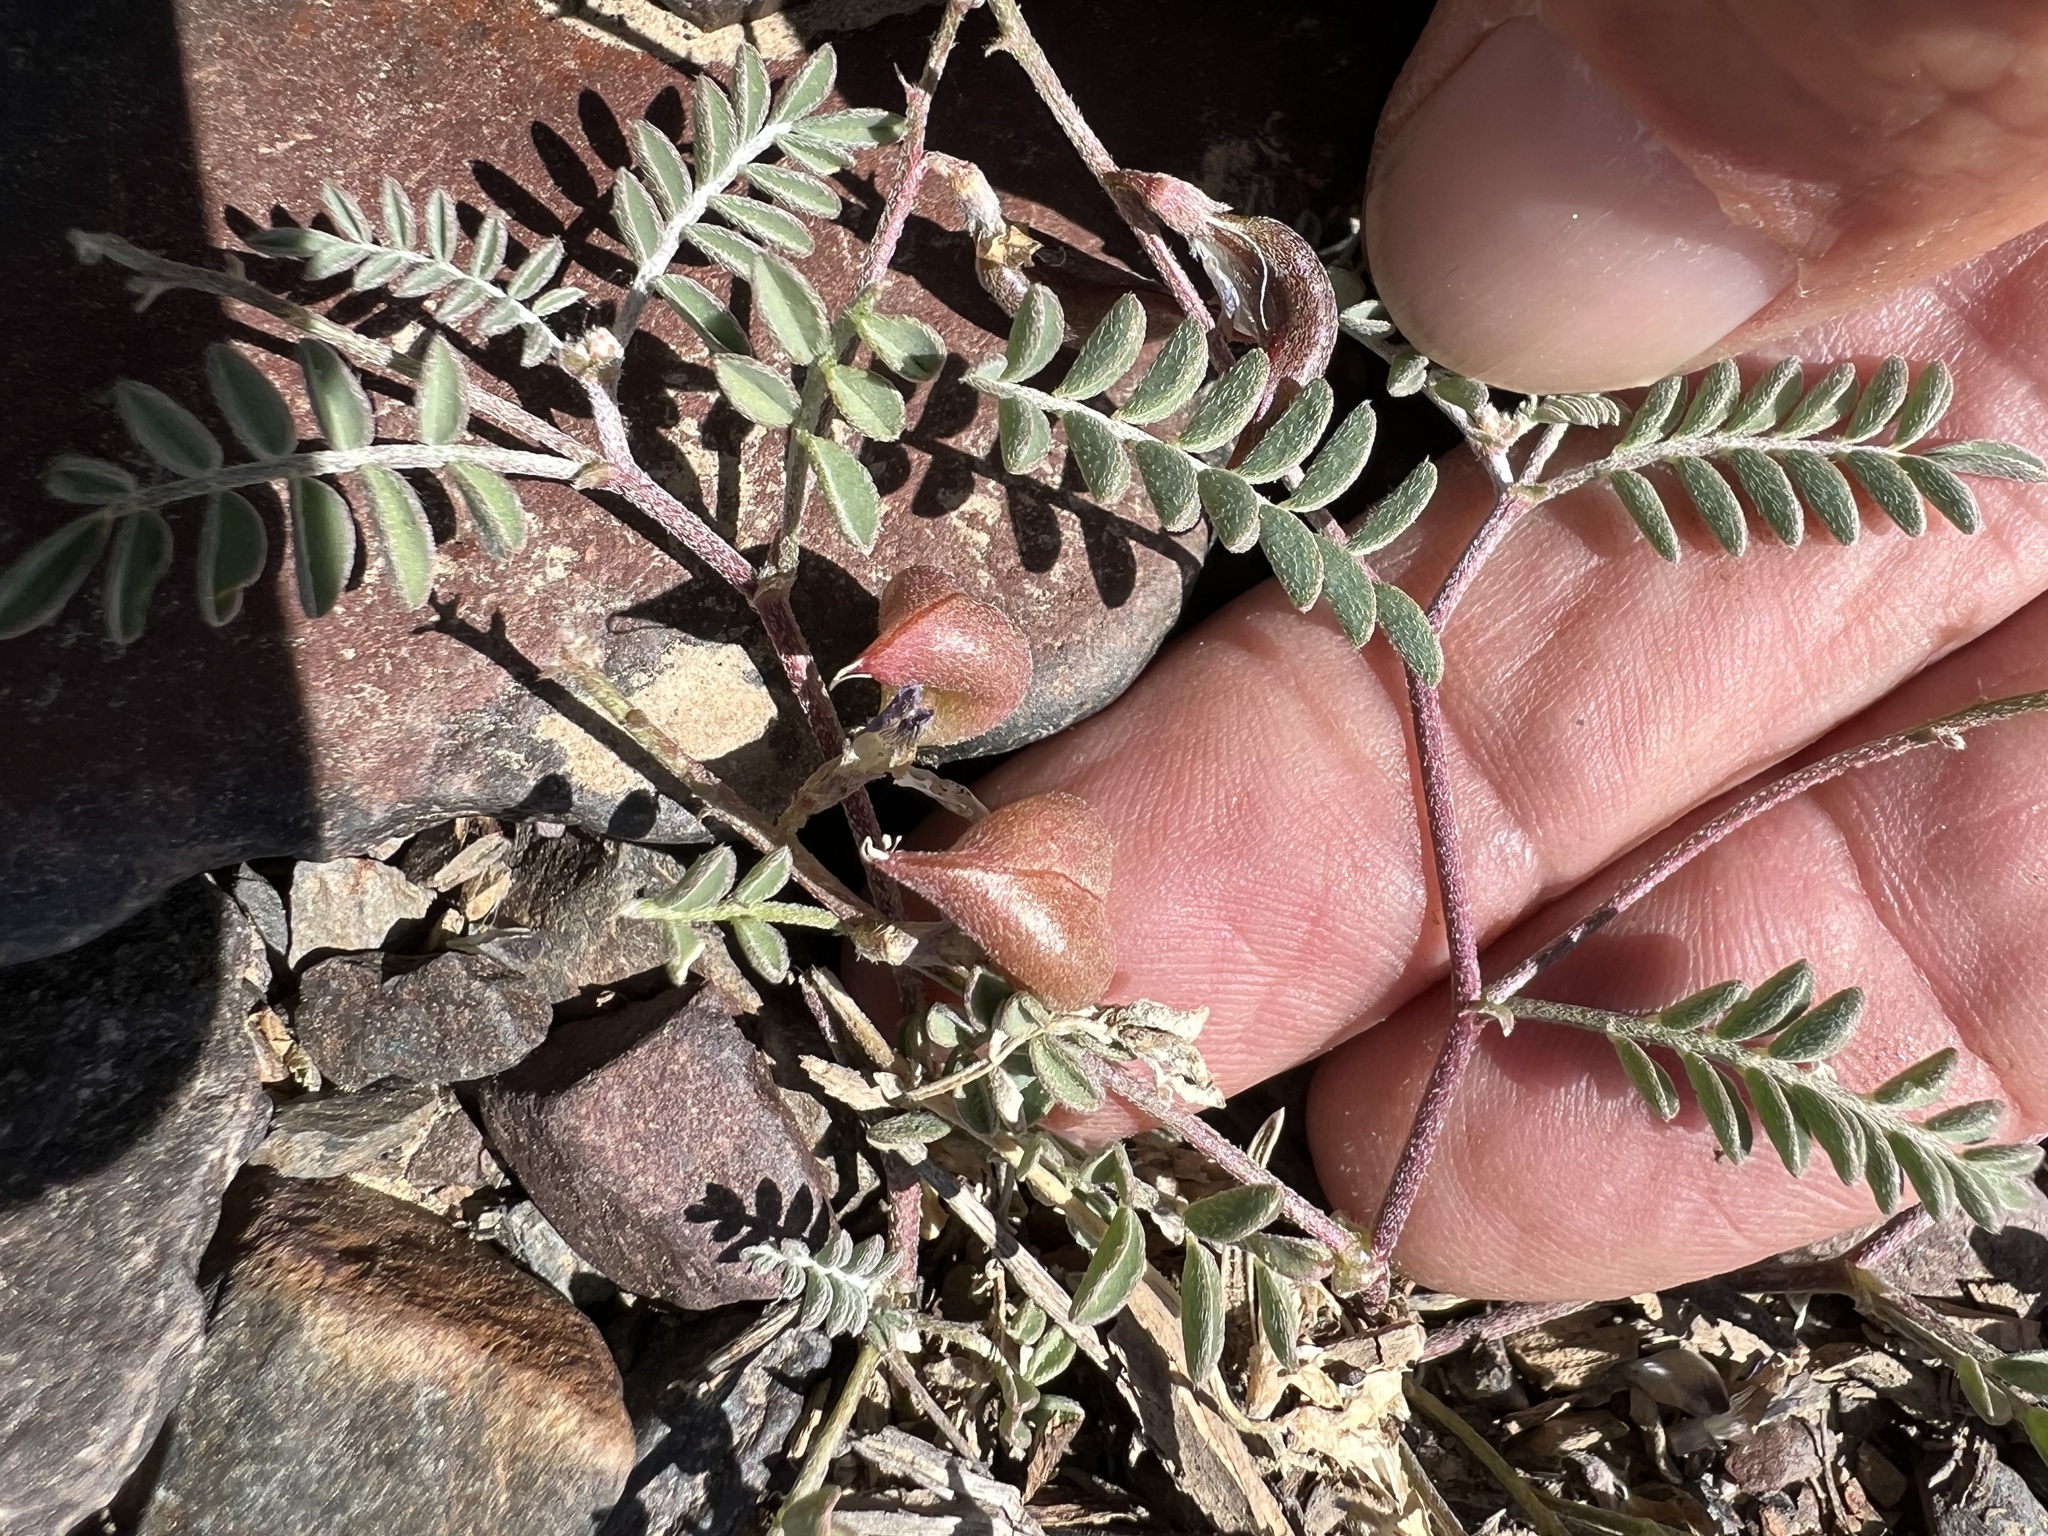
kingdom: Plantae
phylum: Tracheophyta
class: Magnoliopsida
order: Fabales
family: Fabaceae
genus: Astragalus
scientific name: Astragalus inyoensis
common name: Inyo locoweed
